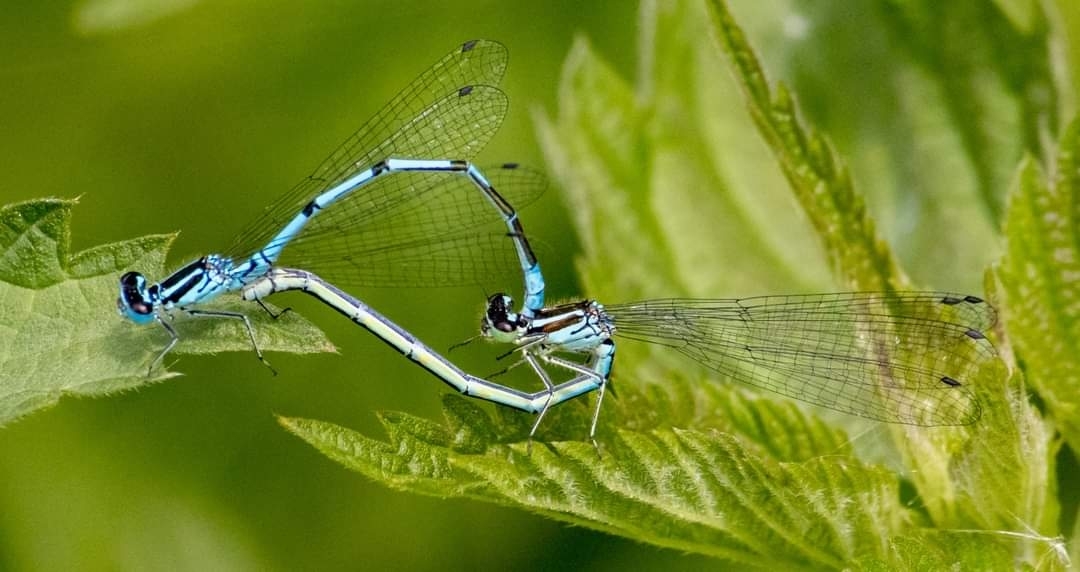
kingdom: Animalia
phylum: Arthropoda
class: Insecta
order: Odonata
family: Coenagrionidae
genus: Coenagrion
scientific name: Coenagrion puella
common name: Azure damselfly
